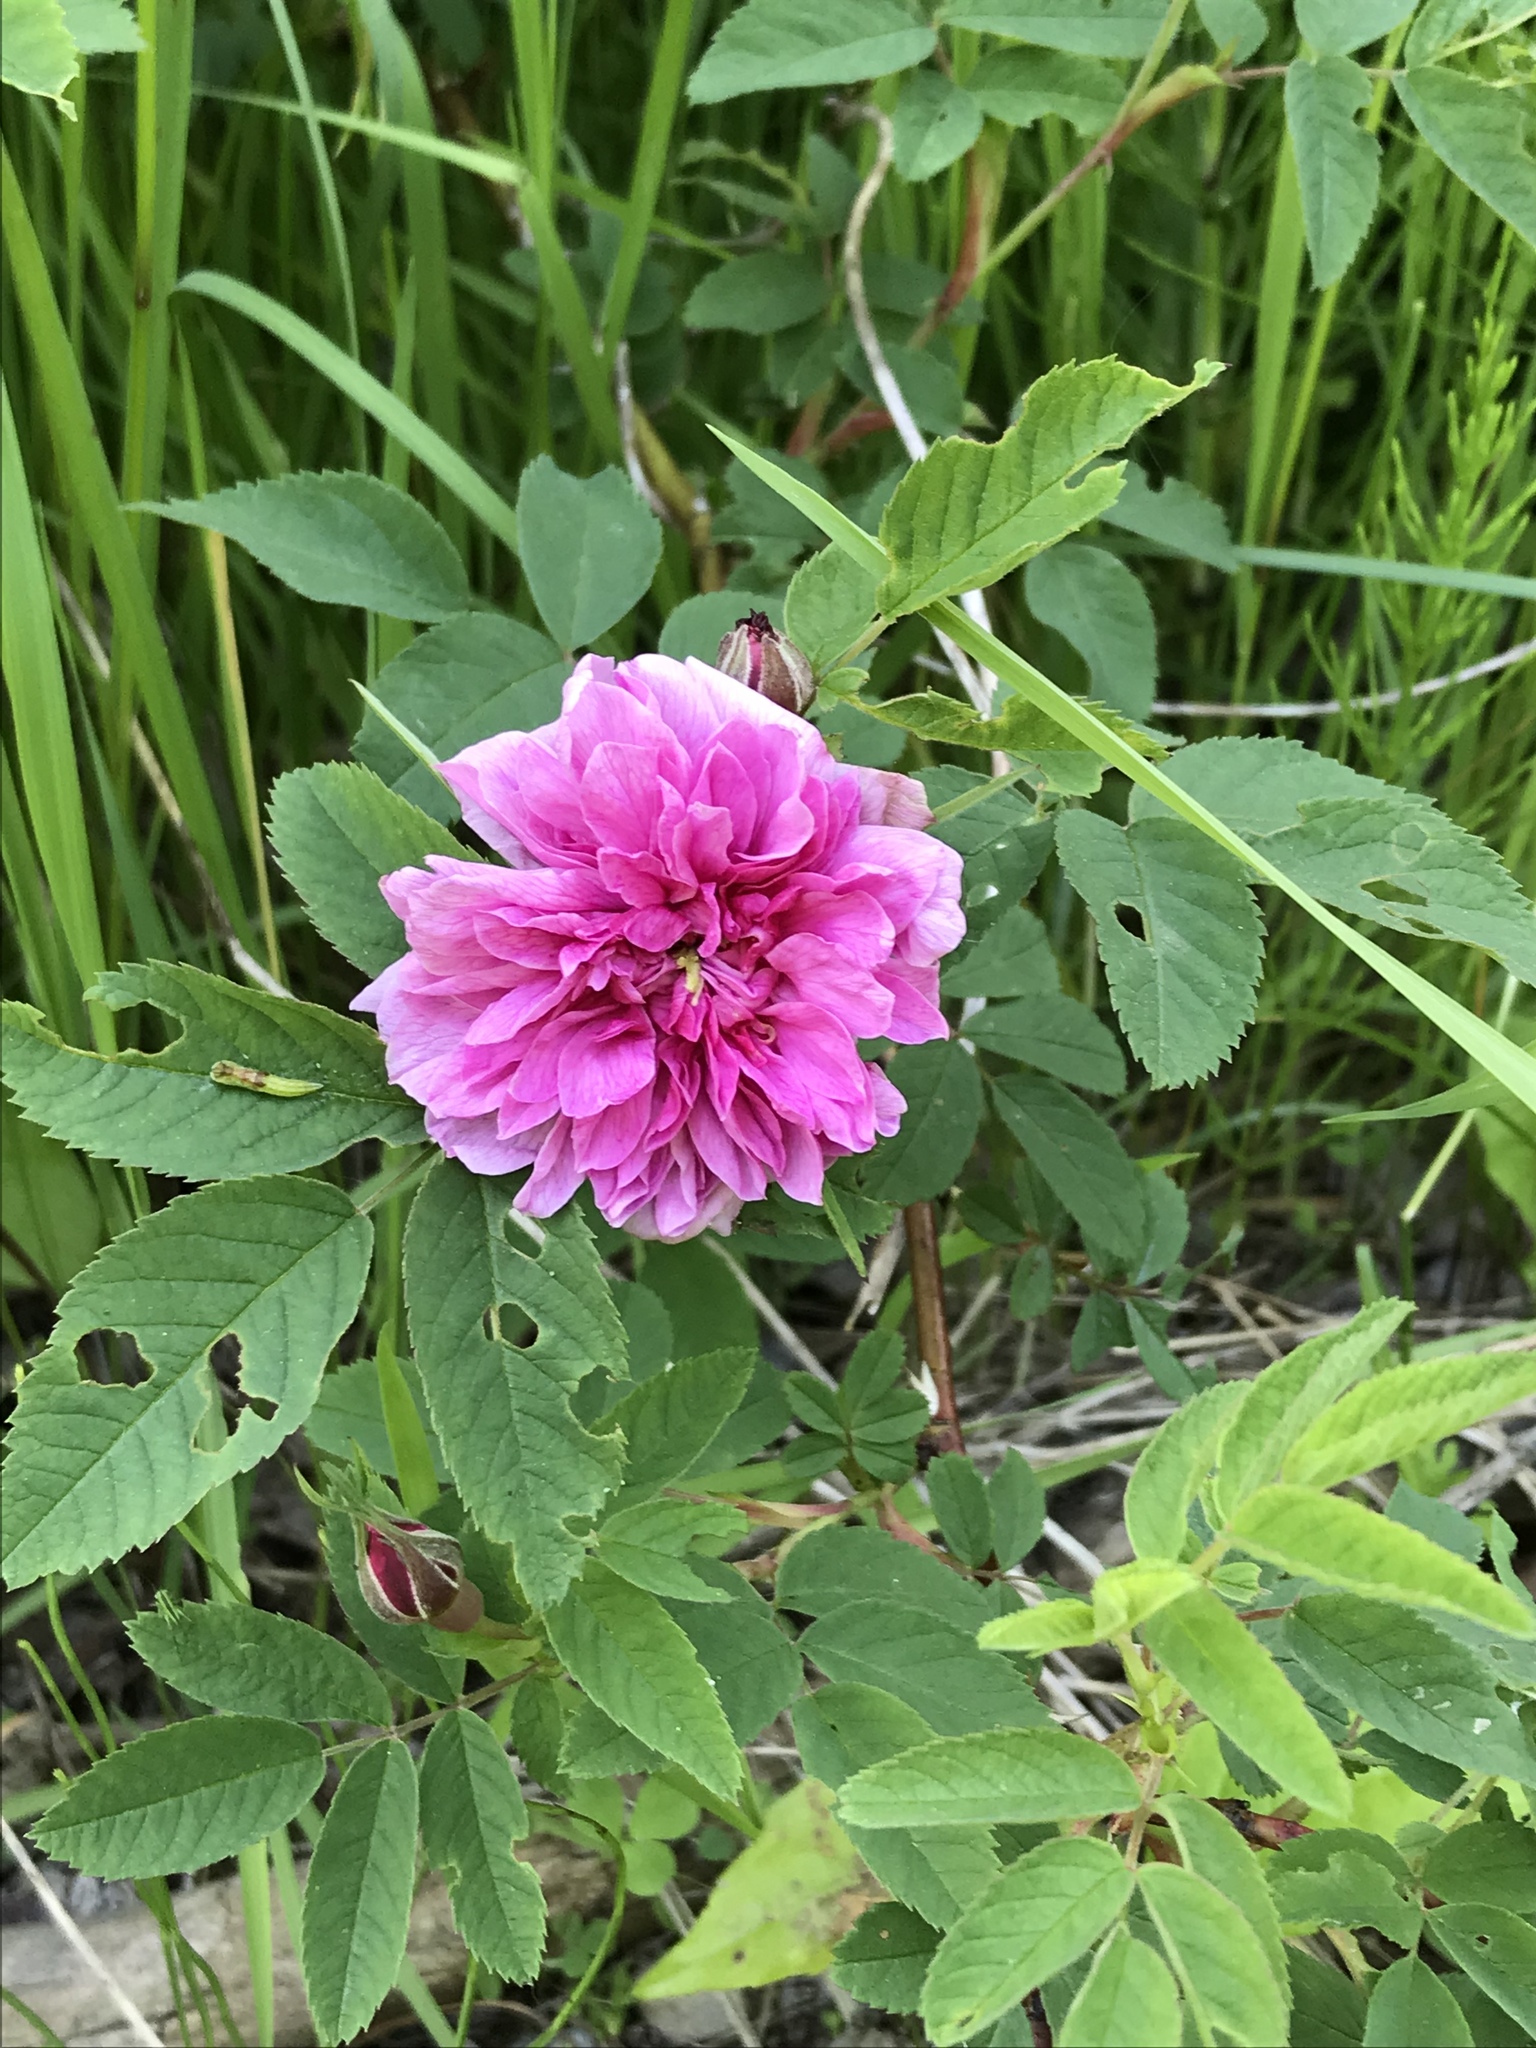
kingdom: Plantae
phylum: Tracheophyta
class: Magnoliopsida
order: Rosales
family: Rosaceae
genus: Rosa
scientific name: Rosa acicularis
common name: Prickly rose
